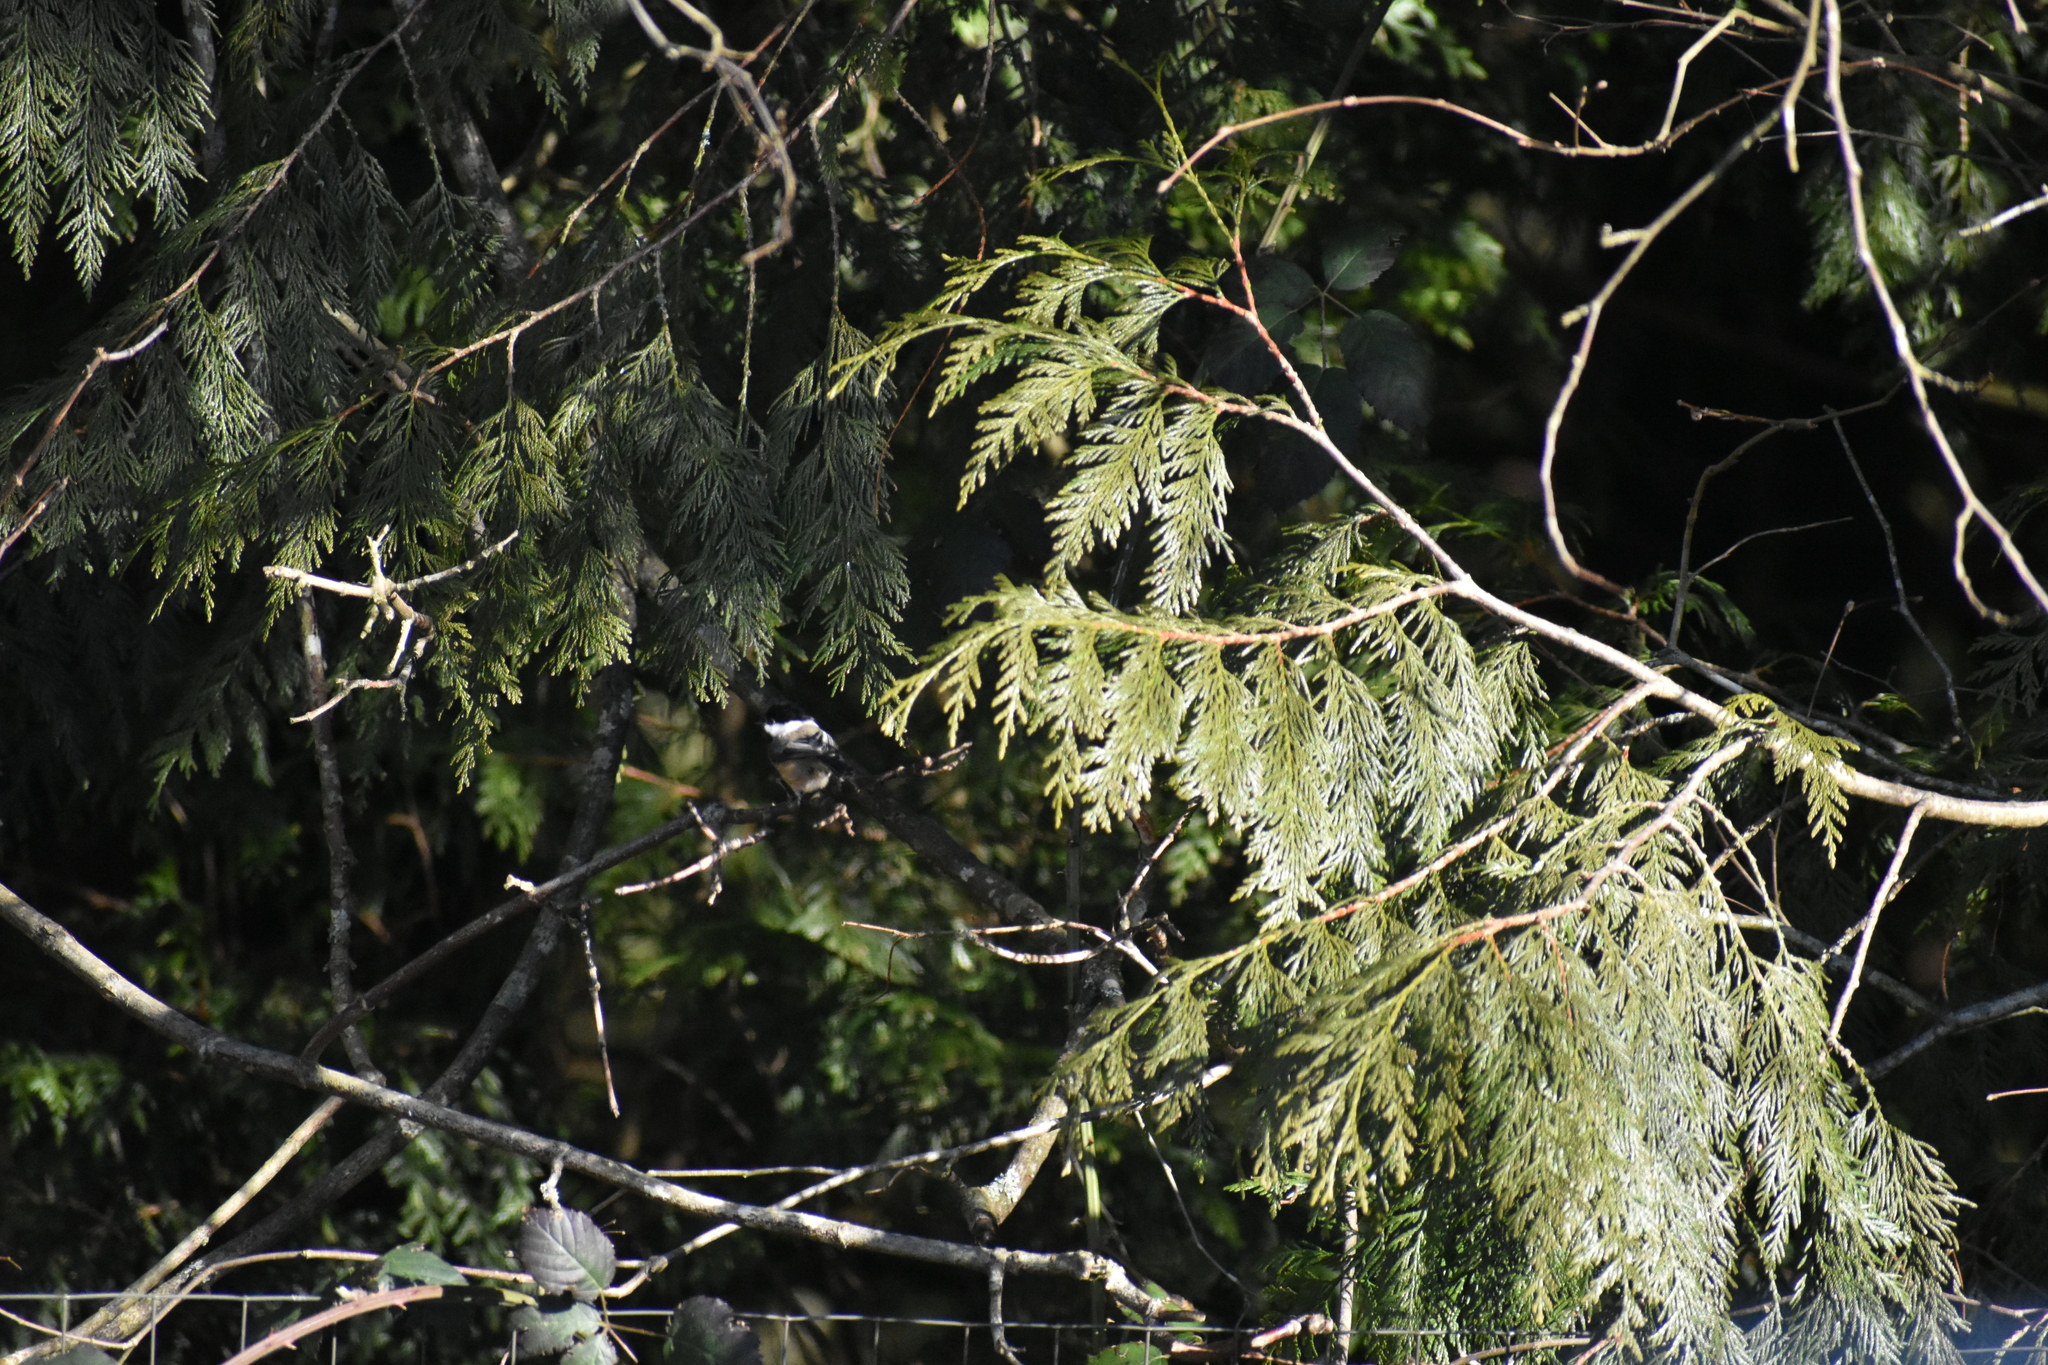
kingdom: Animalia
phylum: Chordata
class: Aves
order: Passeriformes
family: Paridae
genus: Poecile
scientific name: Poecile atricapillus
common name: Black-capped chickadee
